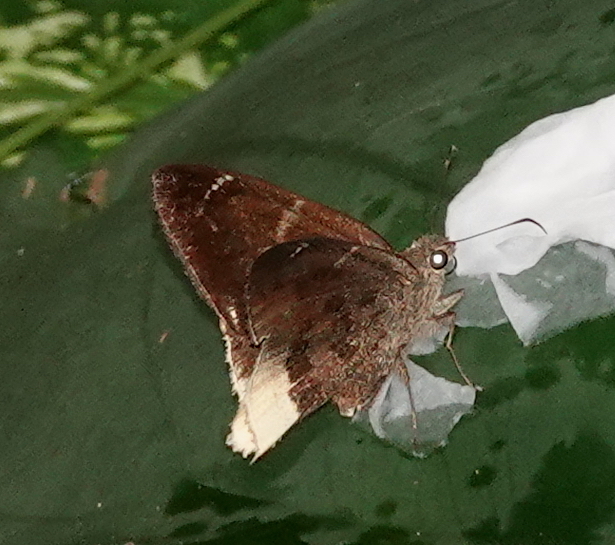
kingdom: Animalia
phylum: Arthropoda
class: Insecta
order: Lepidoptera
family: Hesperiidae
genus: Autochton
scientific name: Autochton Cecropterus phalaecus
